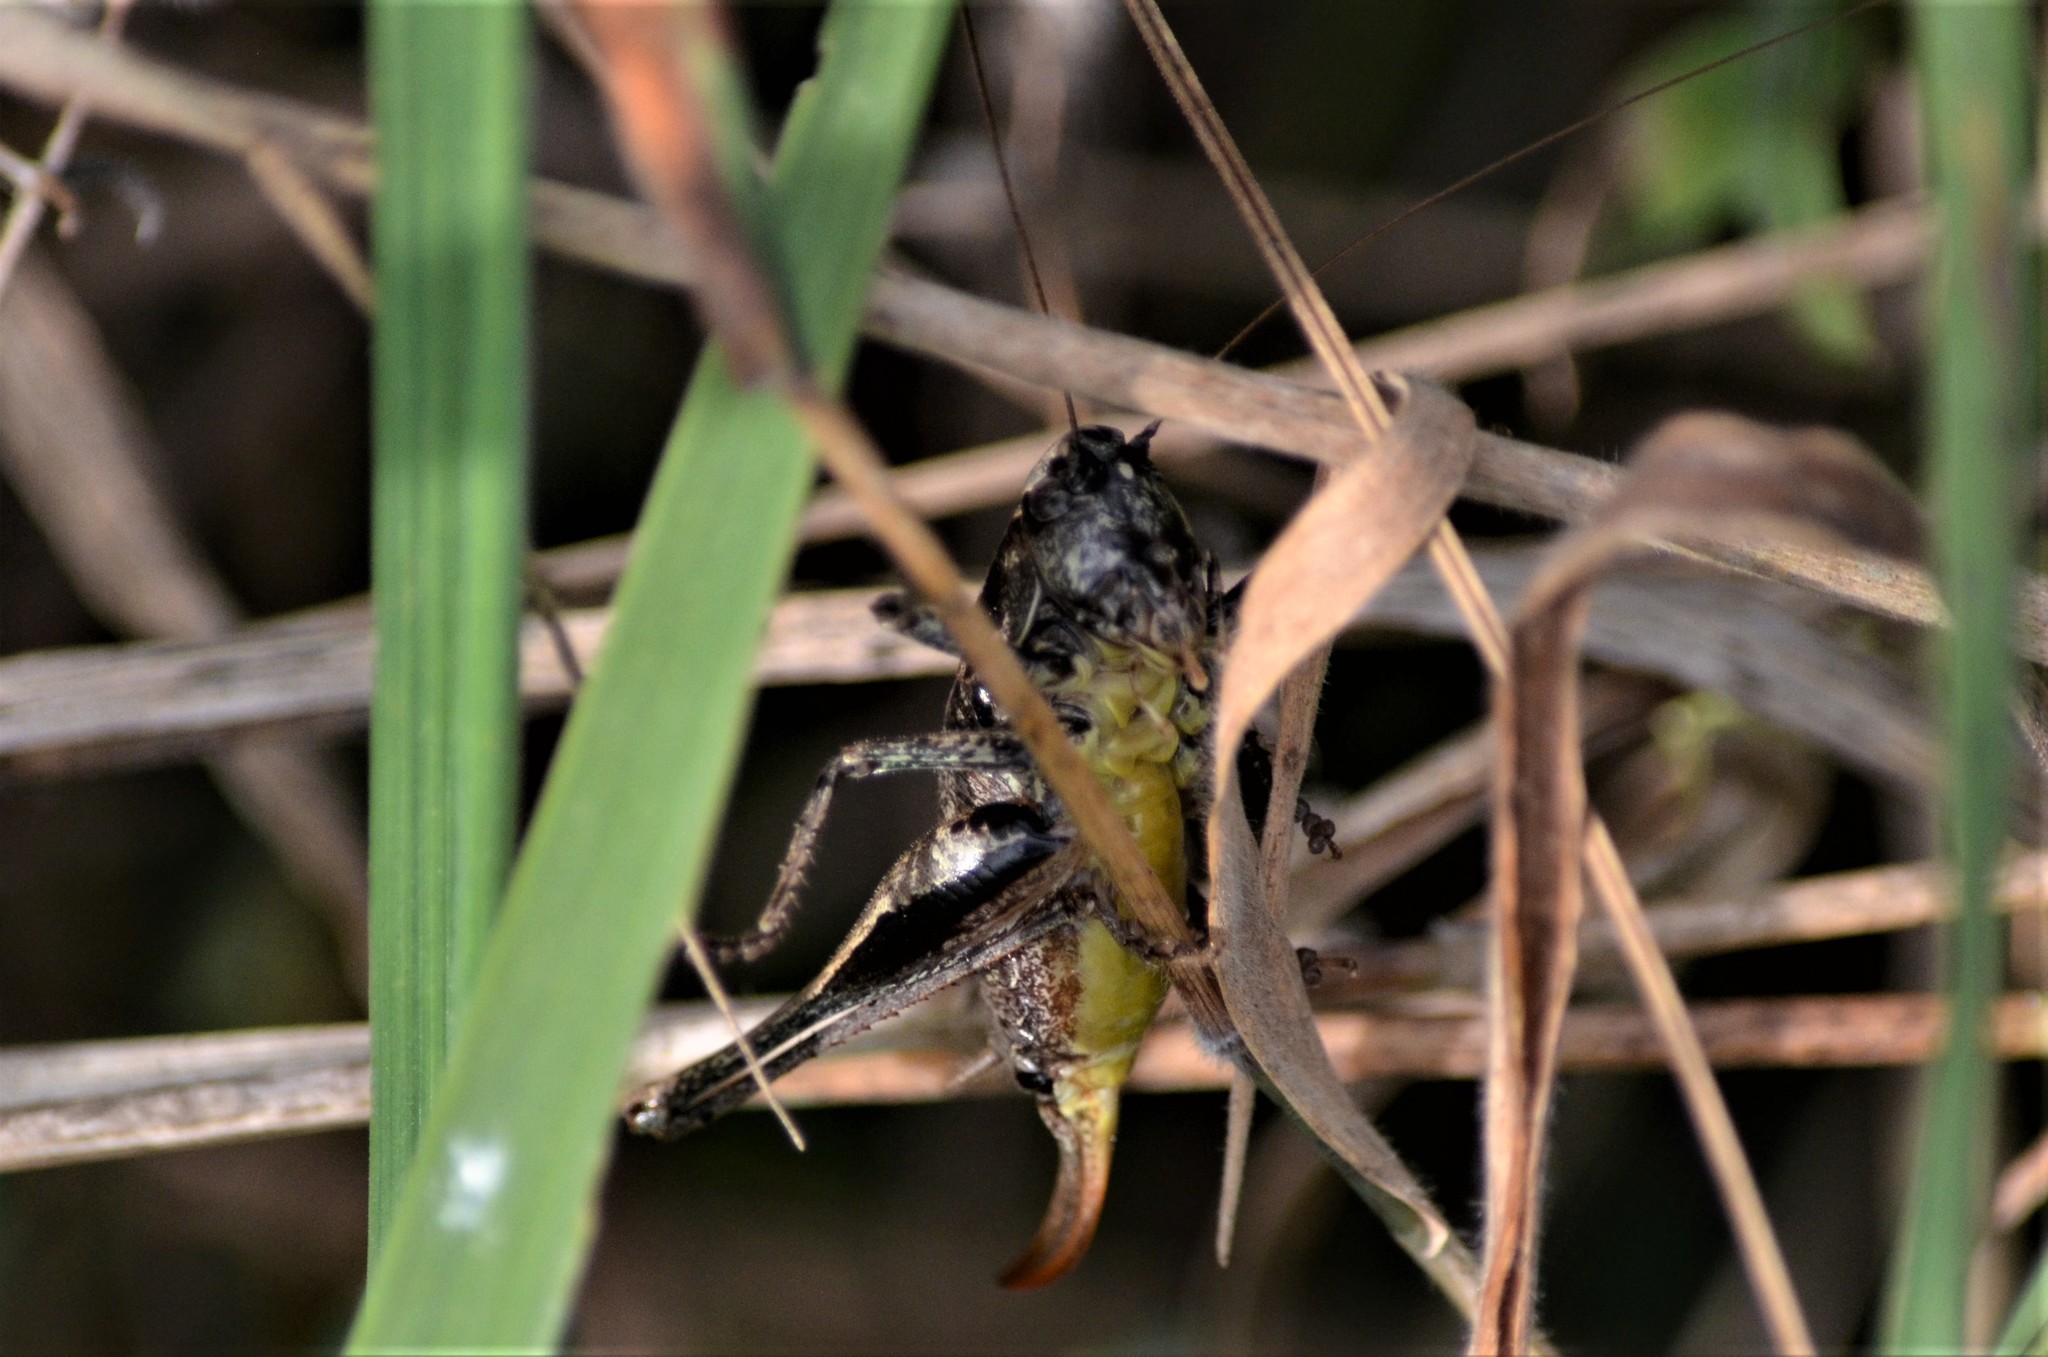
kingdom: Animalia
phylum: Arthropoda
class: Insecta
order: Orthoptera
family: Tettigoniidae
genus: Pholidoptera
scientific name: Pholidoptera griseoaptera
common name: Dark bush-cricket
